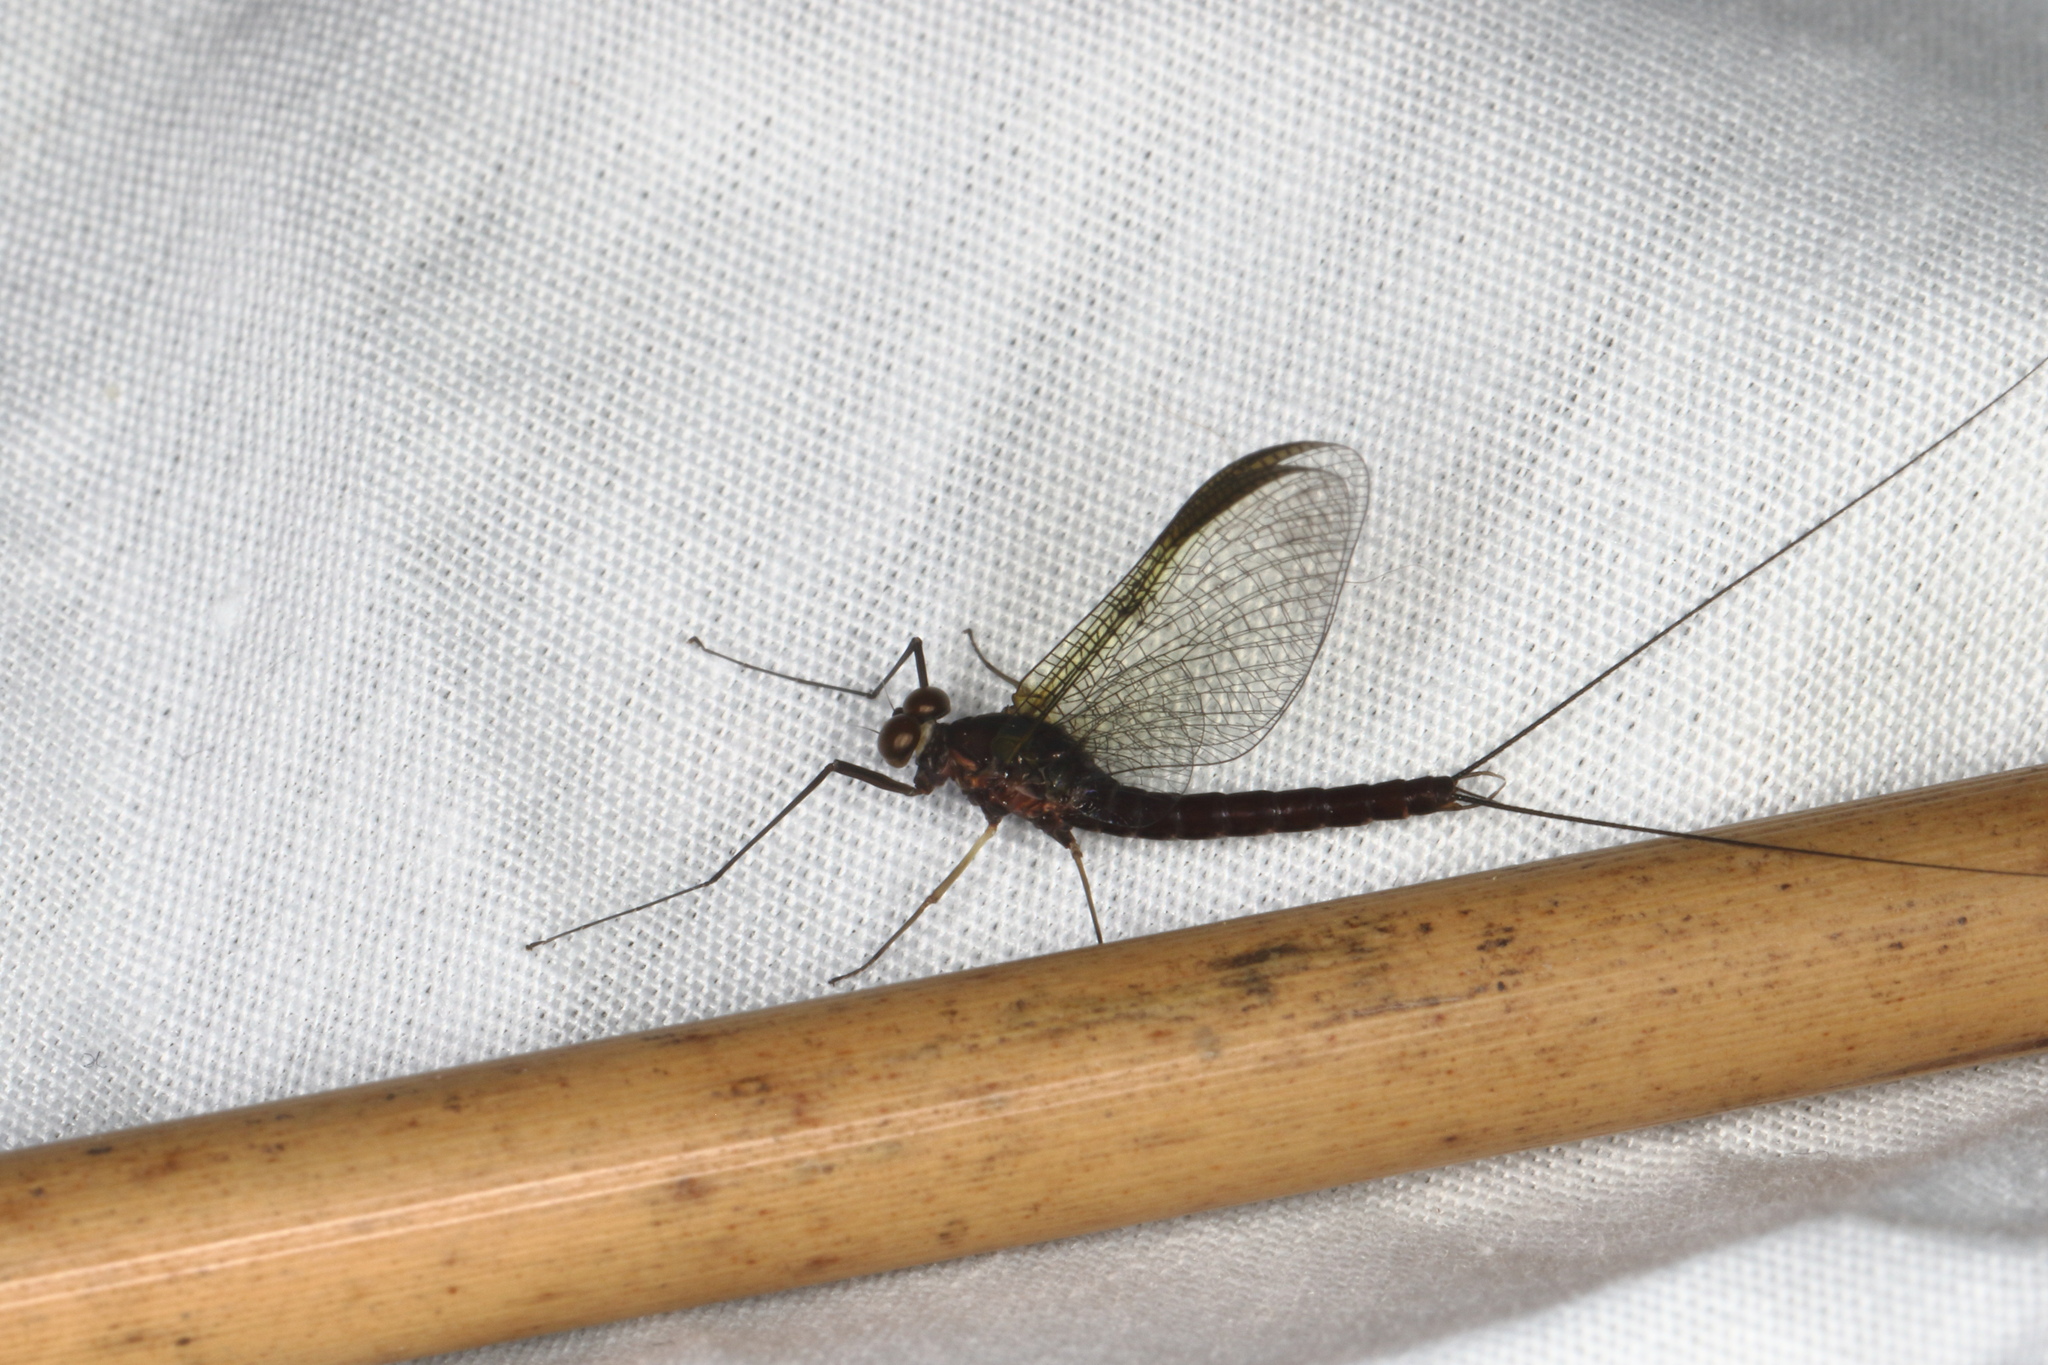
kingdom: Animalia
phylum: Arthropoda
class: Insecta
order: Ephemeroptera
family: Coloburiscidae
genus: Coloburiscus
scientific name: Coloburiscus humeralis
